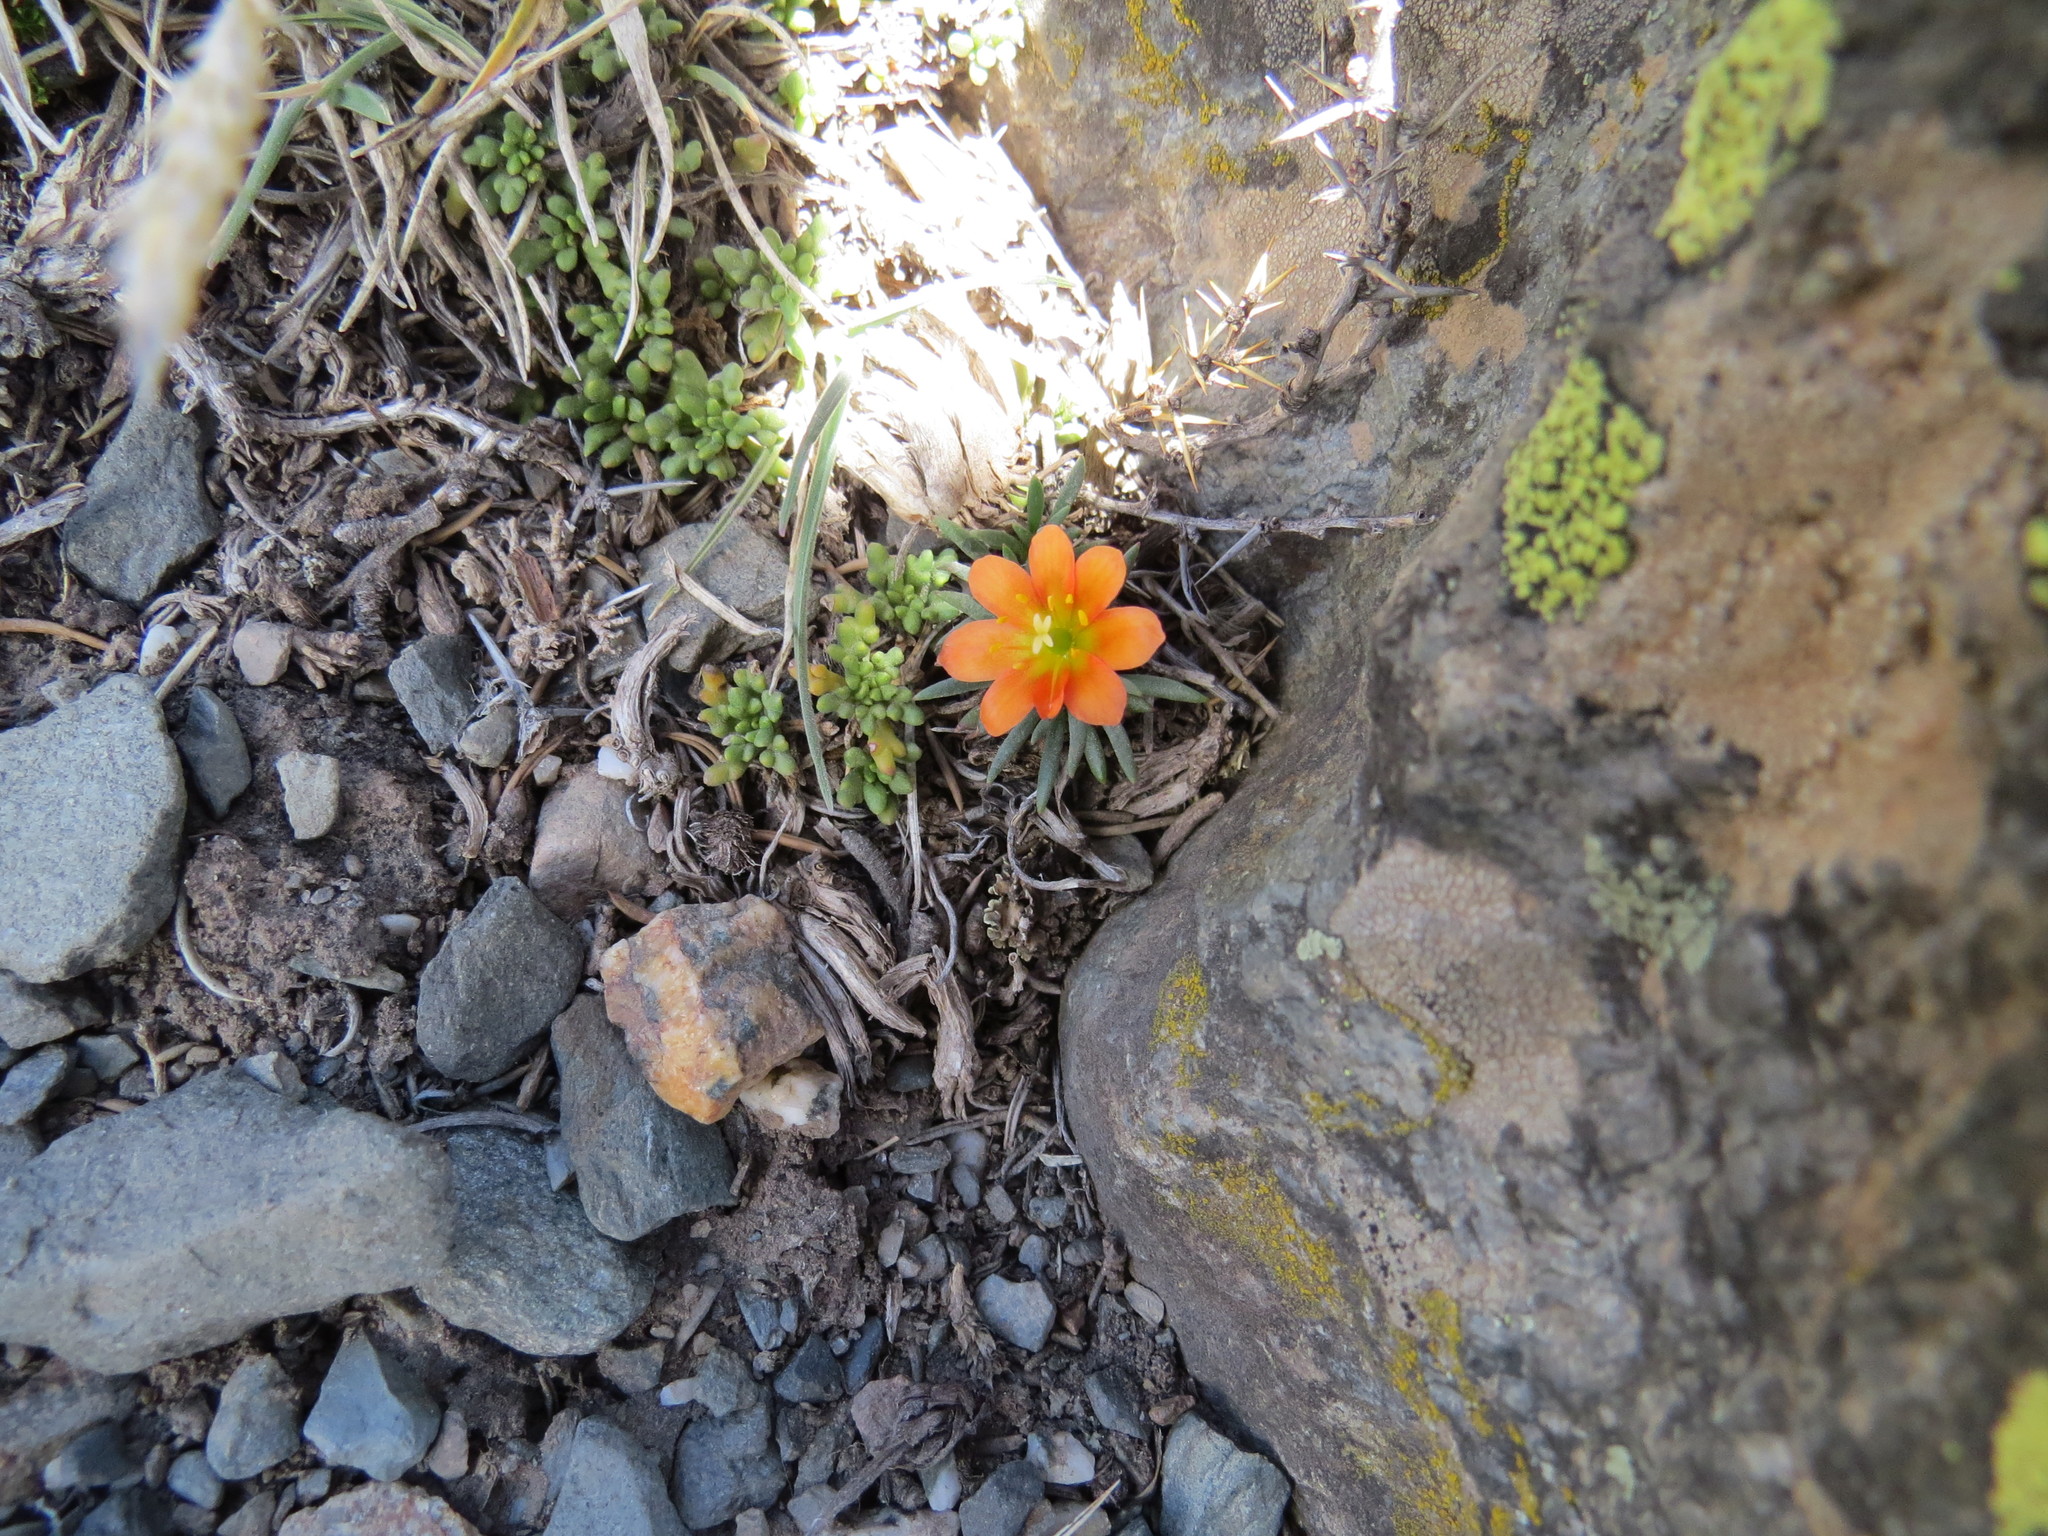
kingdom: Plantae
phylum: Tracheophyta
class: Magnoliopsida
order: Caryophyllales
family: Montiaceae
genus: Calandrinia
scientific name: Calandrinia caespitosa
